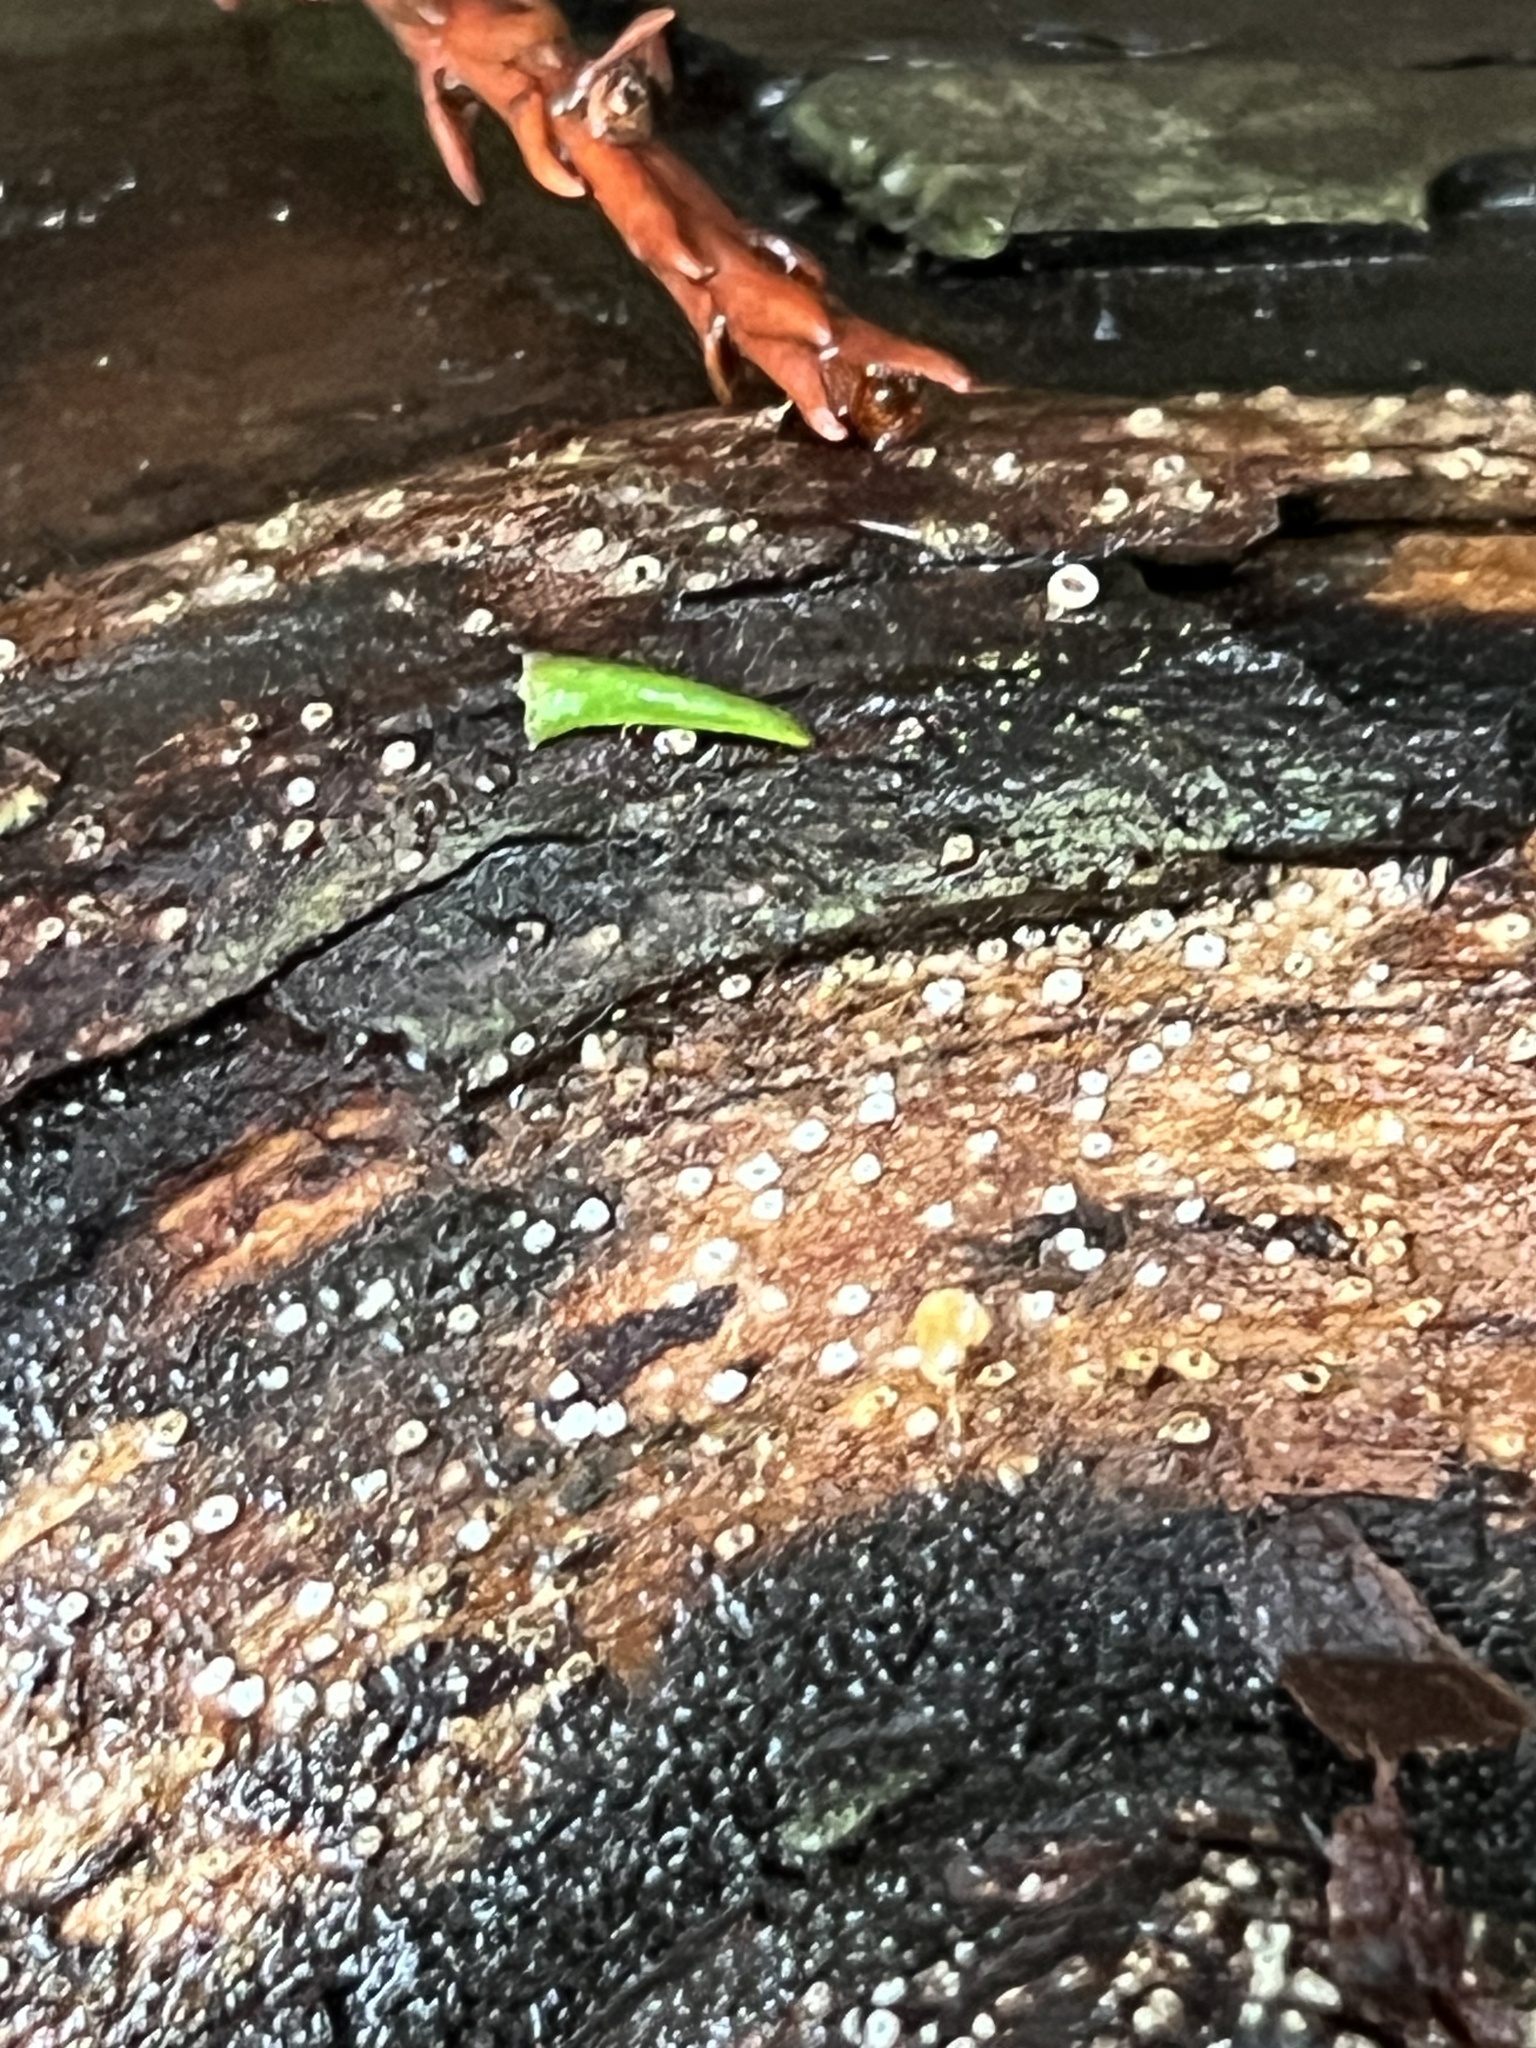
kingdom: Fungi
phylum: Ascomycota
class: Lecanoromycetes
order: Ostropales
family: Stictidaceae
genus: Stictis
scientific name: Stictis radiata
